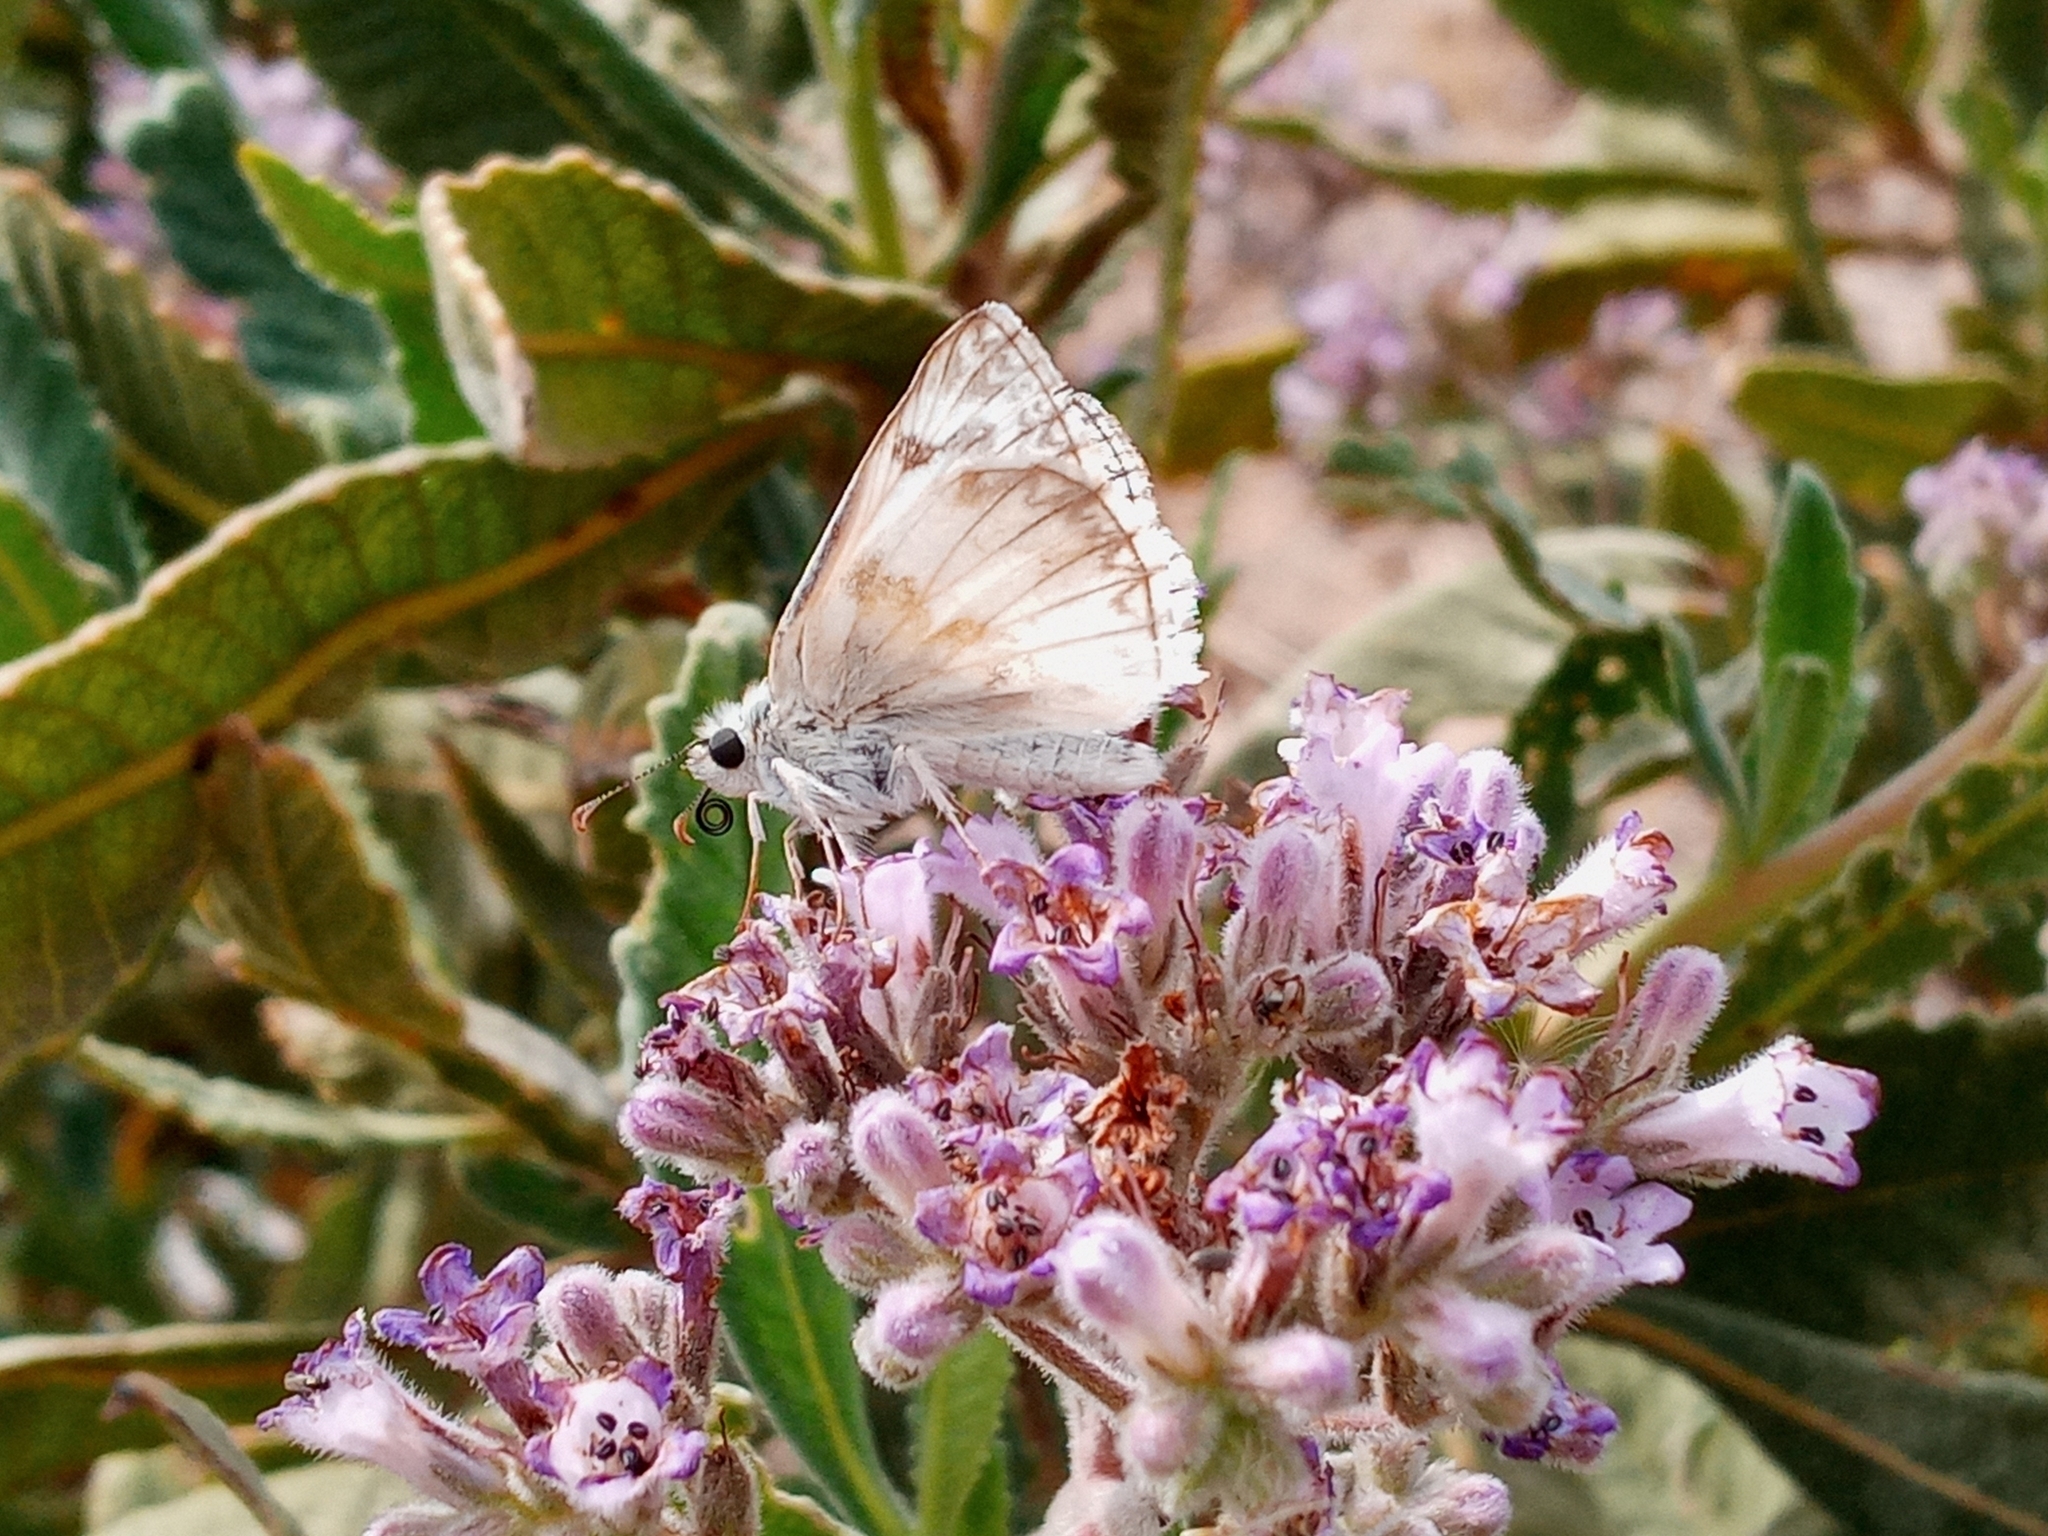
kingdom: Animalia
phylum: Arthropoda
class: Insecta
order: Lepidoptera
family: Hesperiidae
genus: Heliopetes
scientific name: Heliopetes ericetorum
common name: Northern white-skipper
